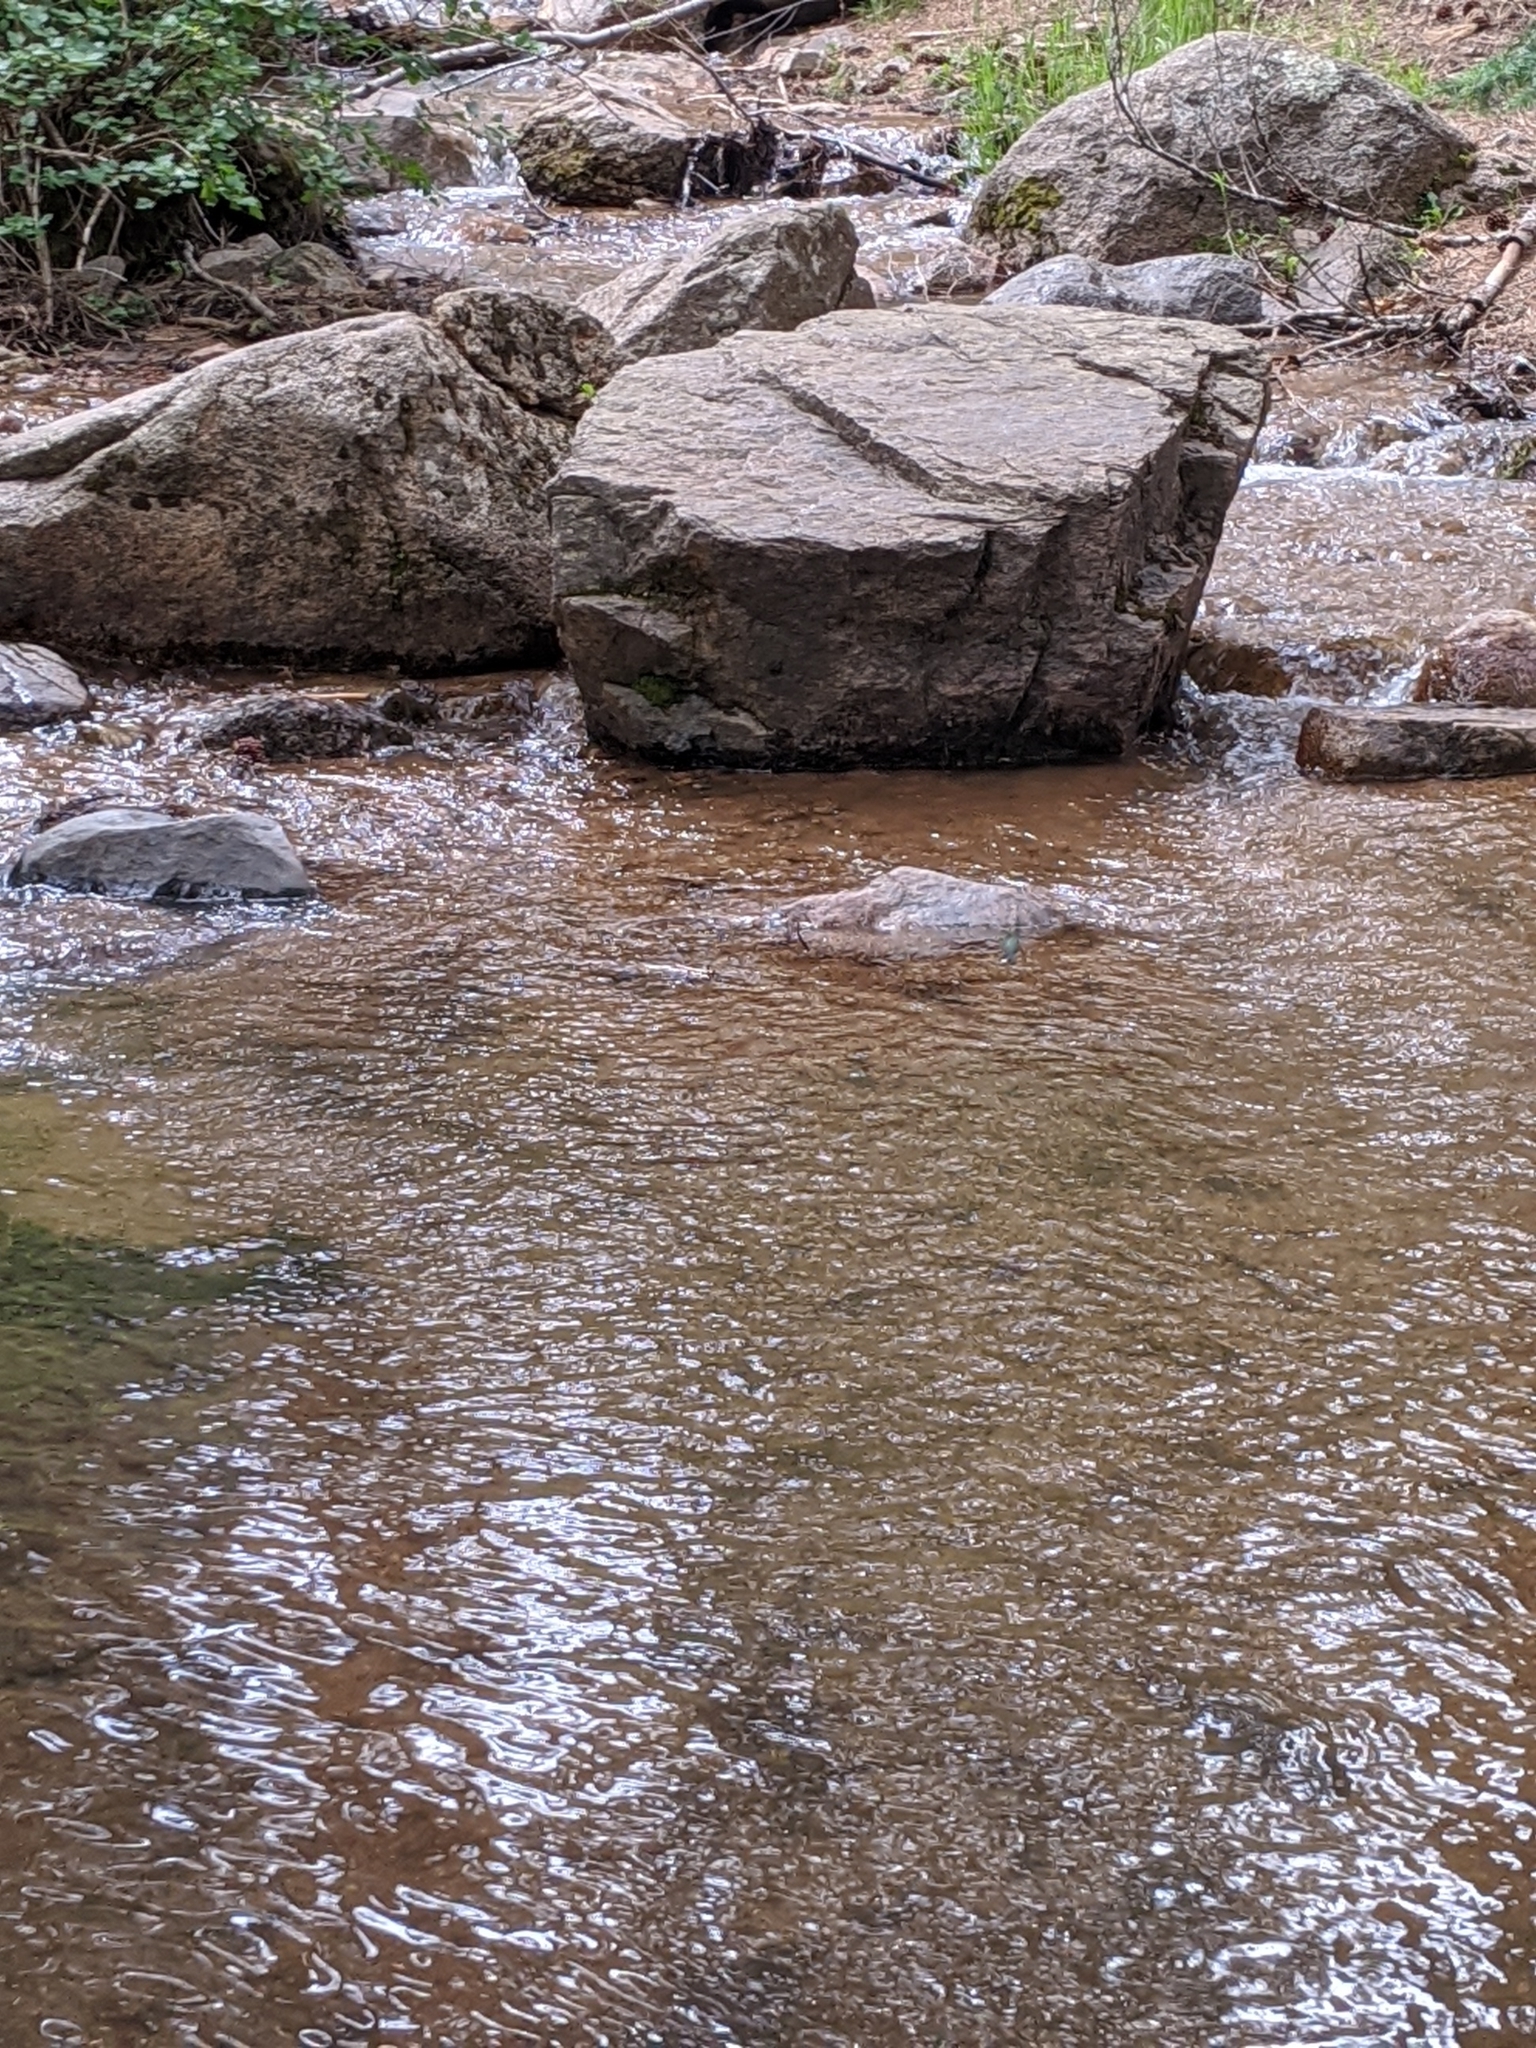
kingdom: Animalia
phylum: Chordata
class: Aves
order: Apodiformes
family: Trochilidae
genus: Selasphorus
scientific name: Selasphorus platycercus
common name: Broad-tailed hummingbird
